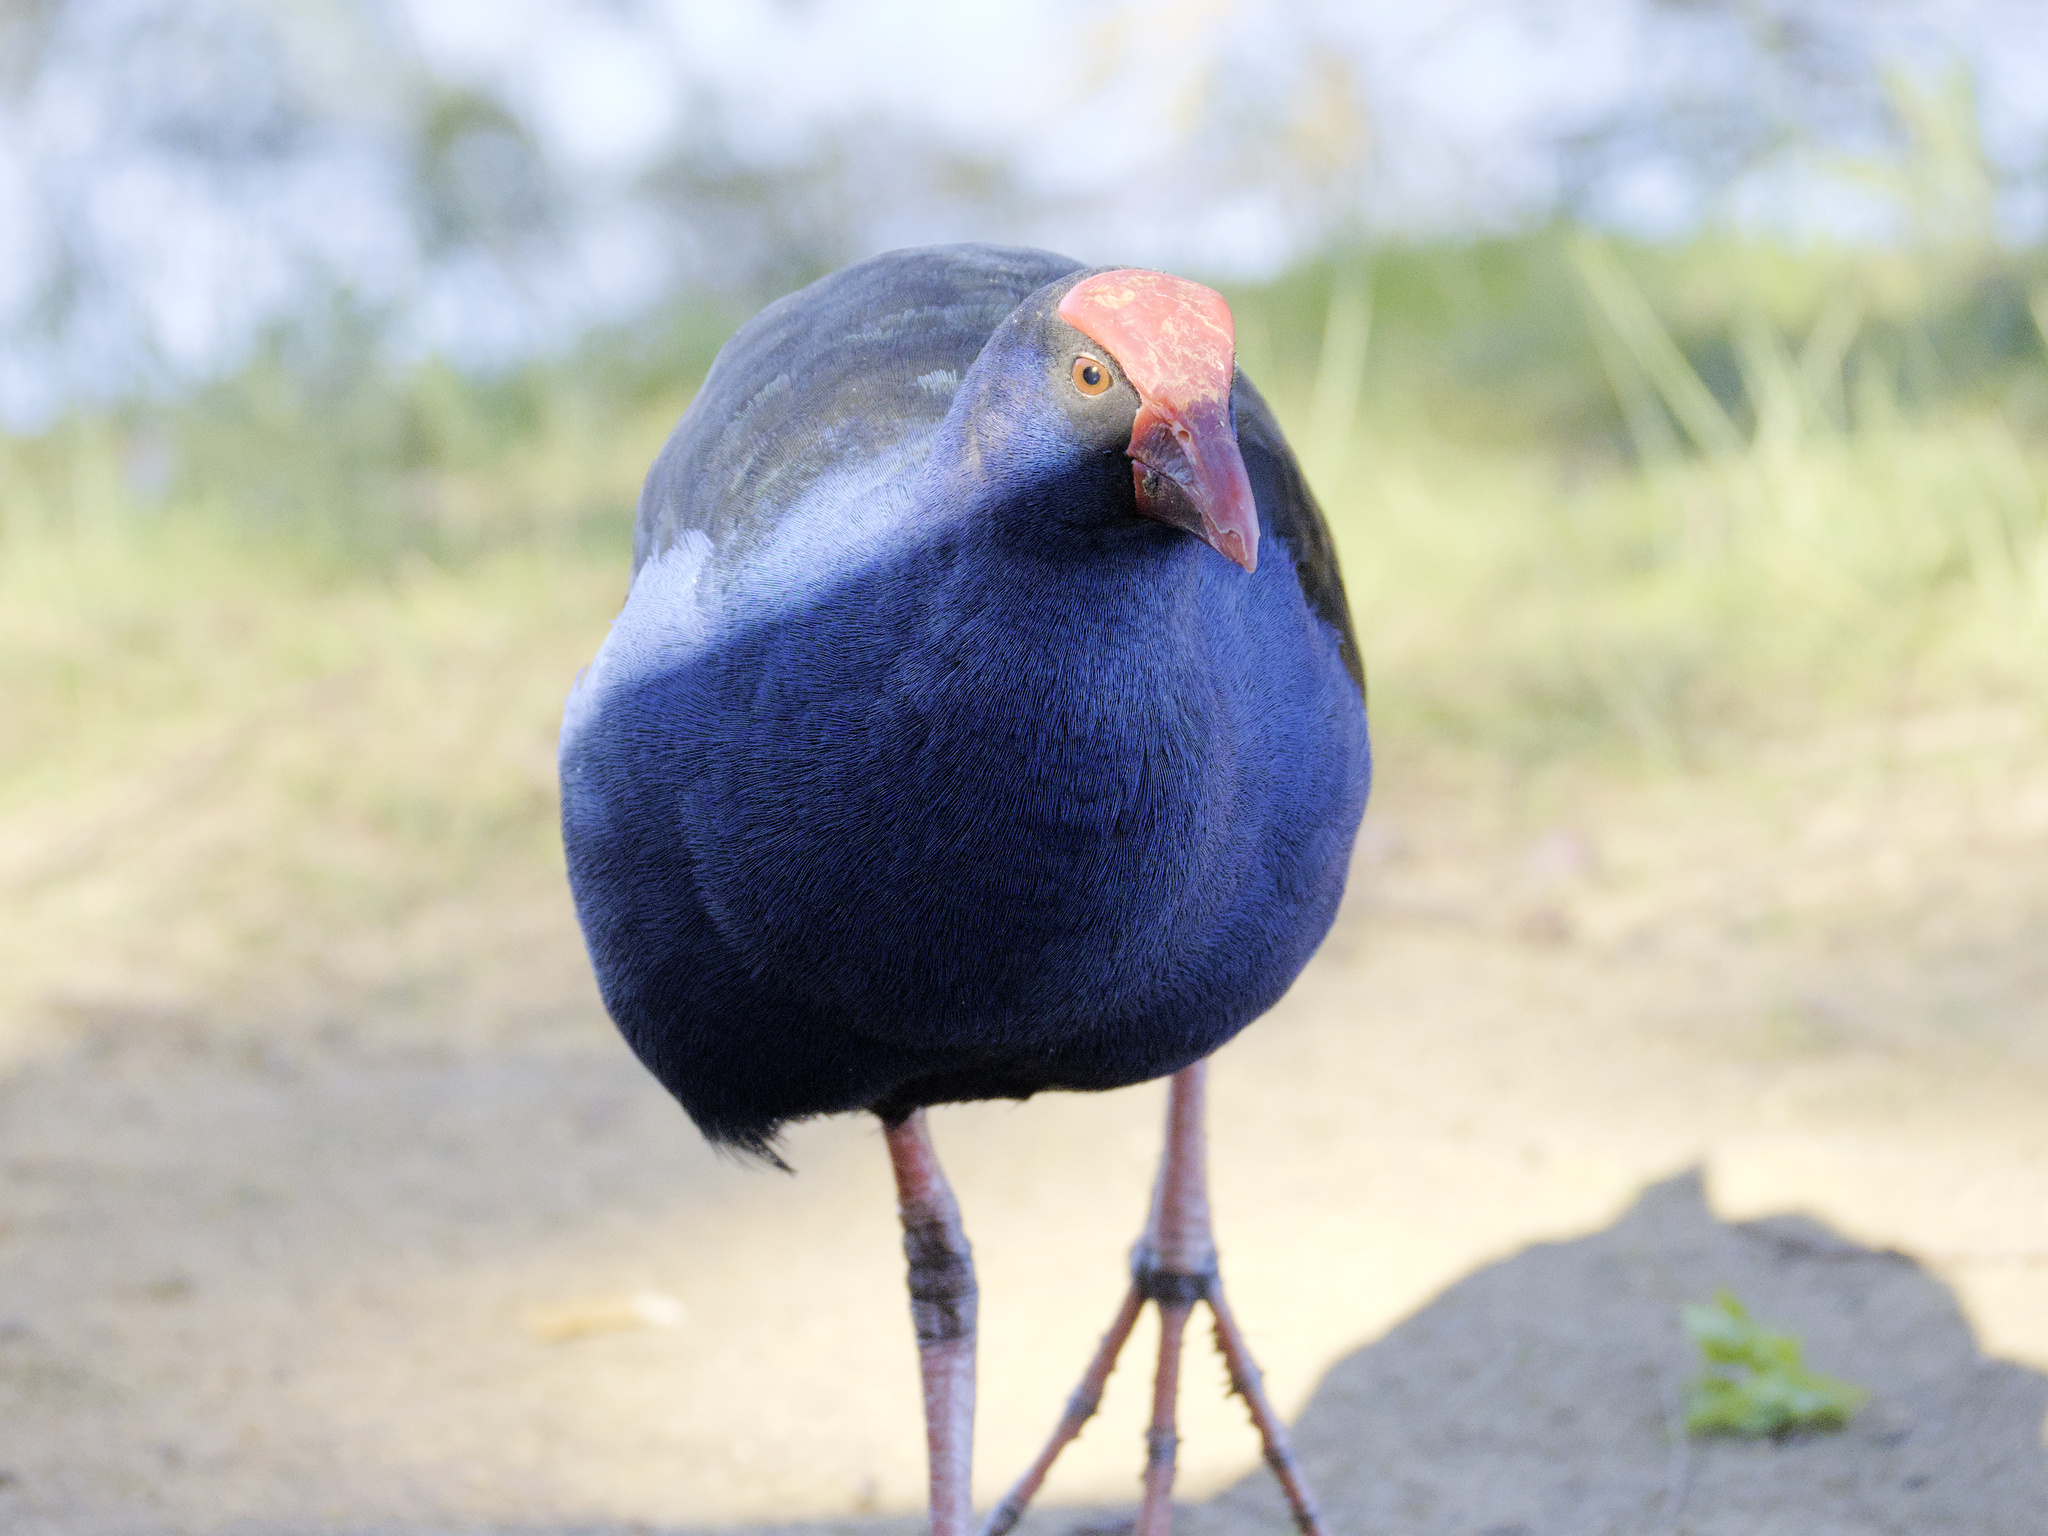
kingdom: Animalia
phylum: Chordata
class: Aves
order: Gruiformes
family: Rallidae
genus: Porphyrio
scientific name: Porphyrio melanotus
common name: Australasian swamphen
